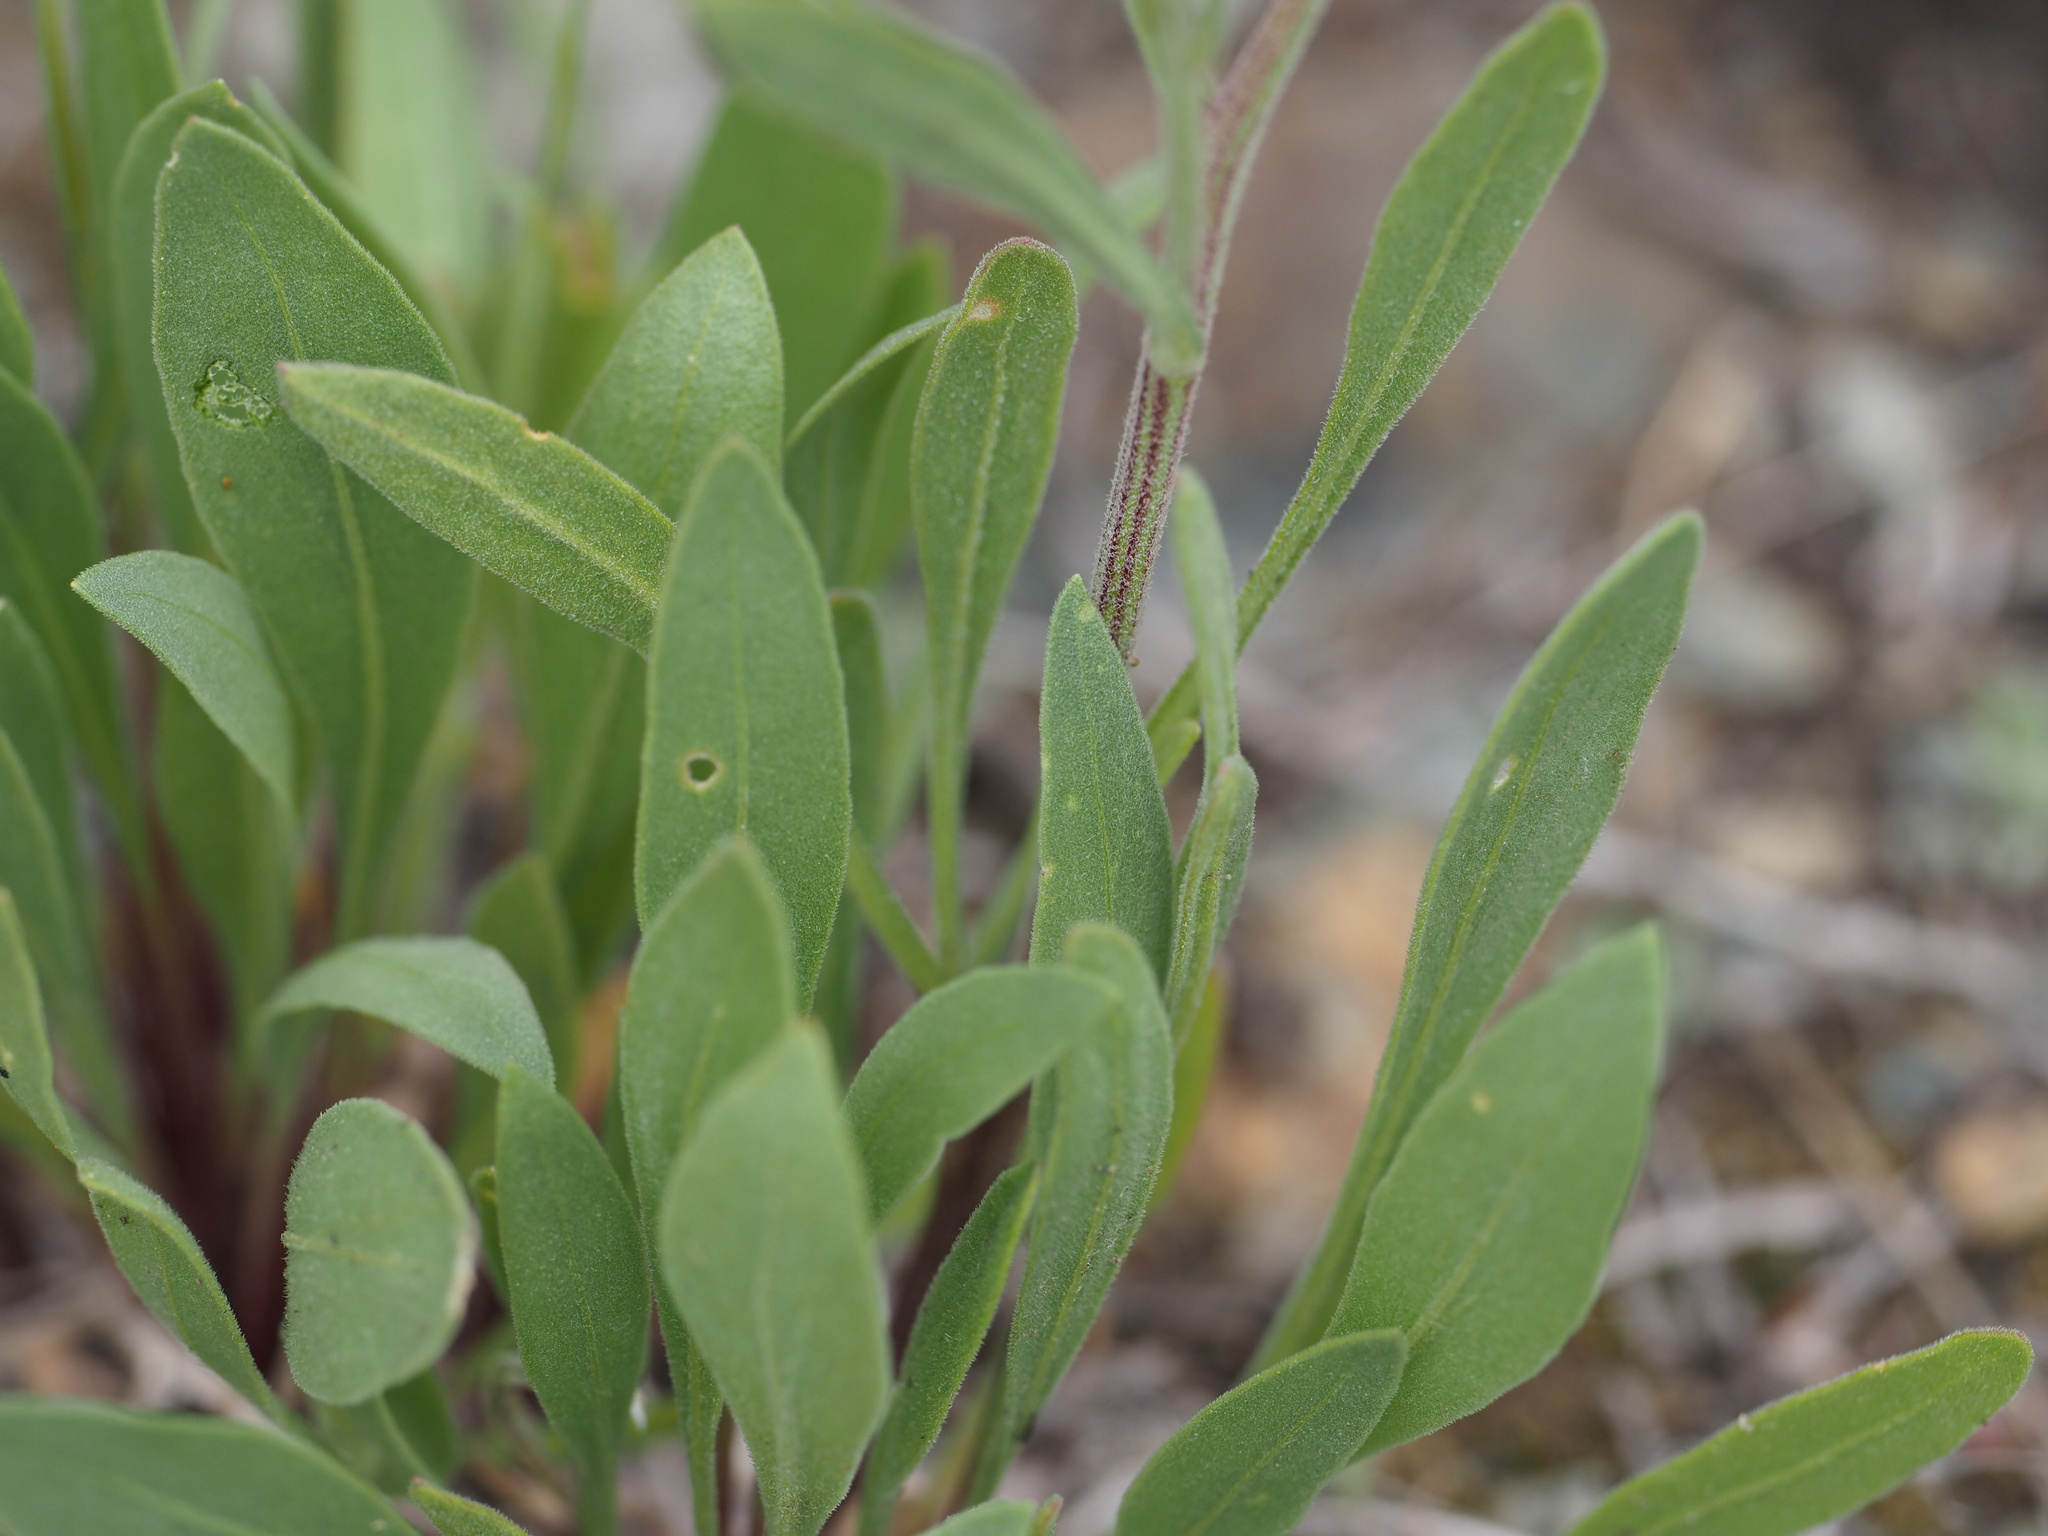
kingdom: Plantae
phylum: Tracheophyta
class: Magnoliopsida
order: Asterales
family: Asteraceae
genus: Gaillardia
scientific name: Gaillardia aristata
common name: Blanket-flower
